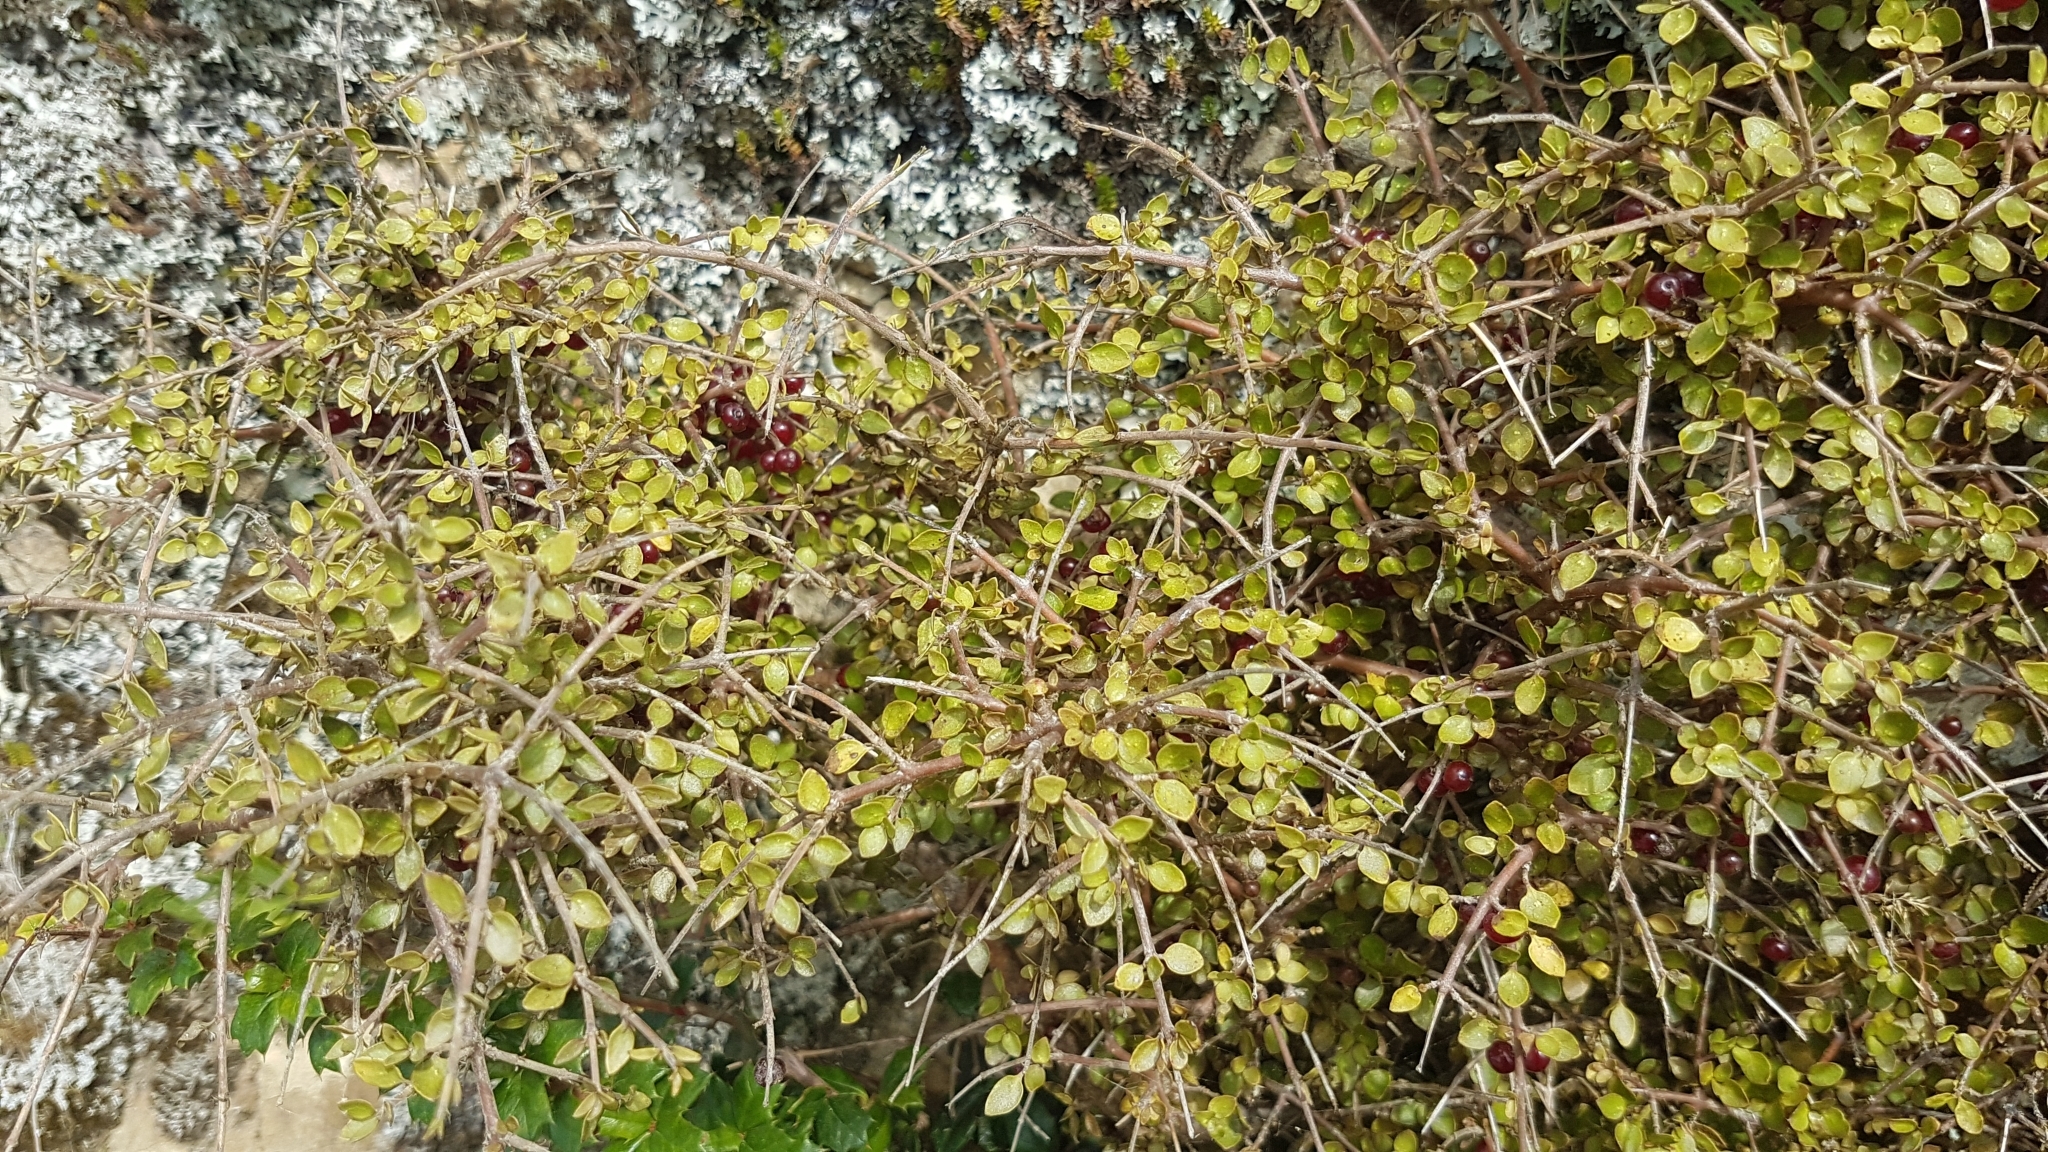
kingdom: Plantae
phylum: Tracheophyta
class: Magnoliopsida
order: Gentianales
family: Rubiaceae
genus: Coprosma
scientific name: Coprosma rhamnoides
